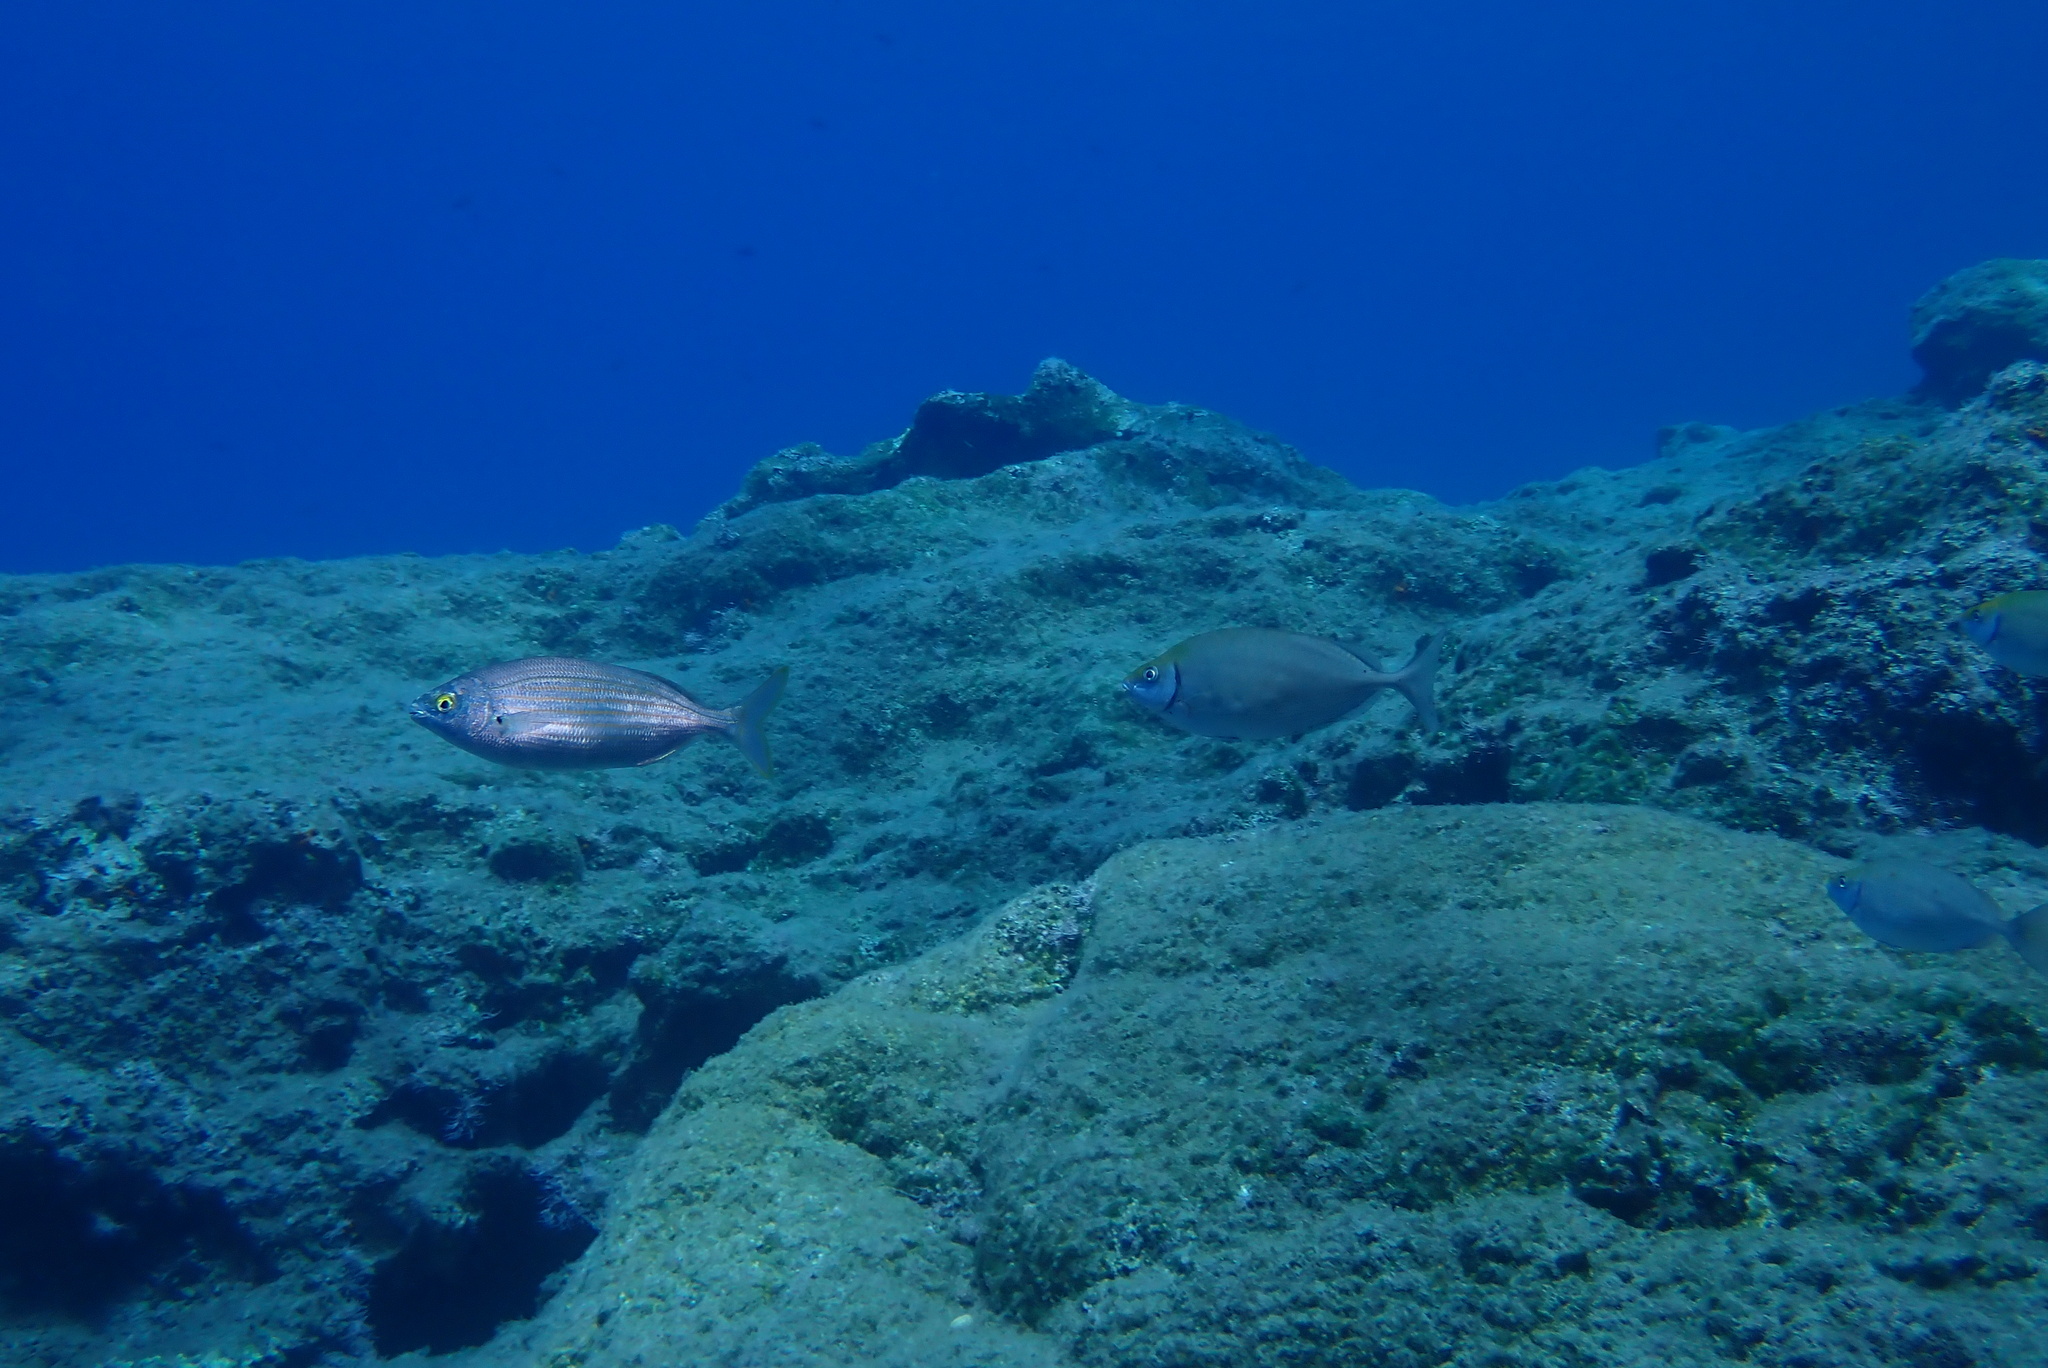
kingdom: Animalia
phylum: Chordata
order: Perciformes
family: Sparidae
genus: Sarpa
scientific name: Sarpa salpa
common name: Salema
